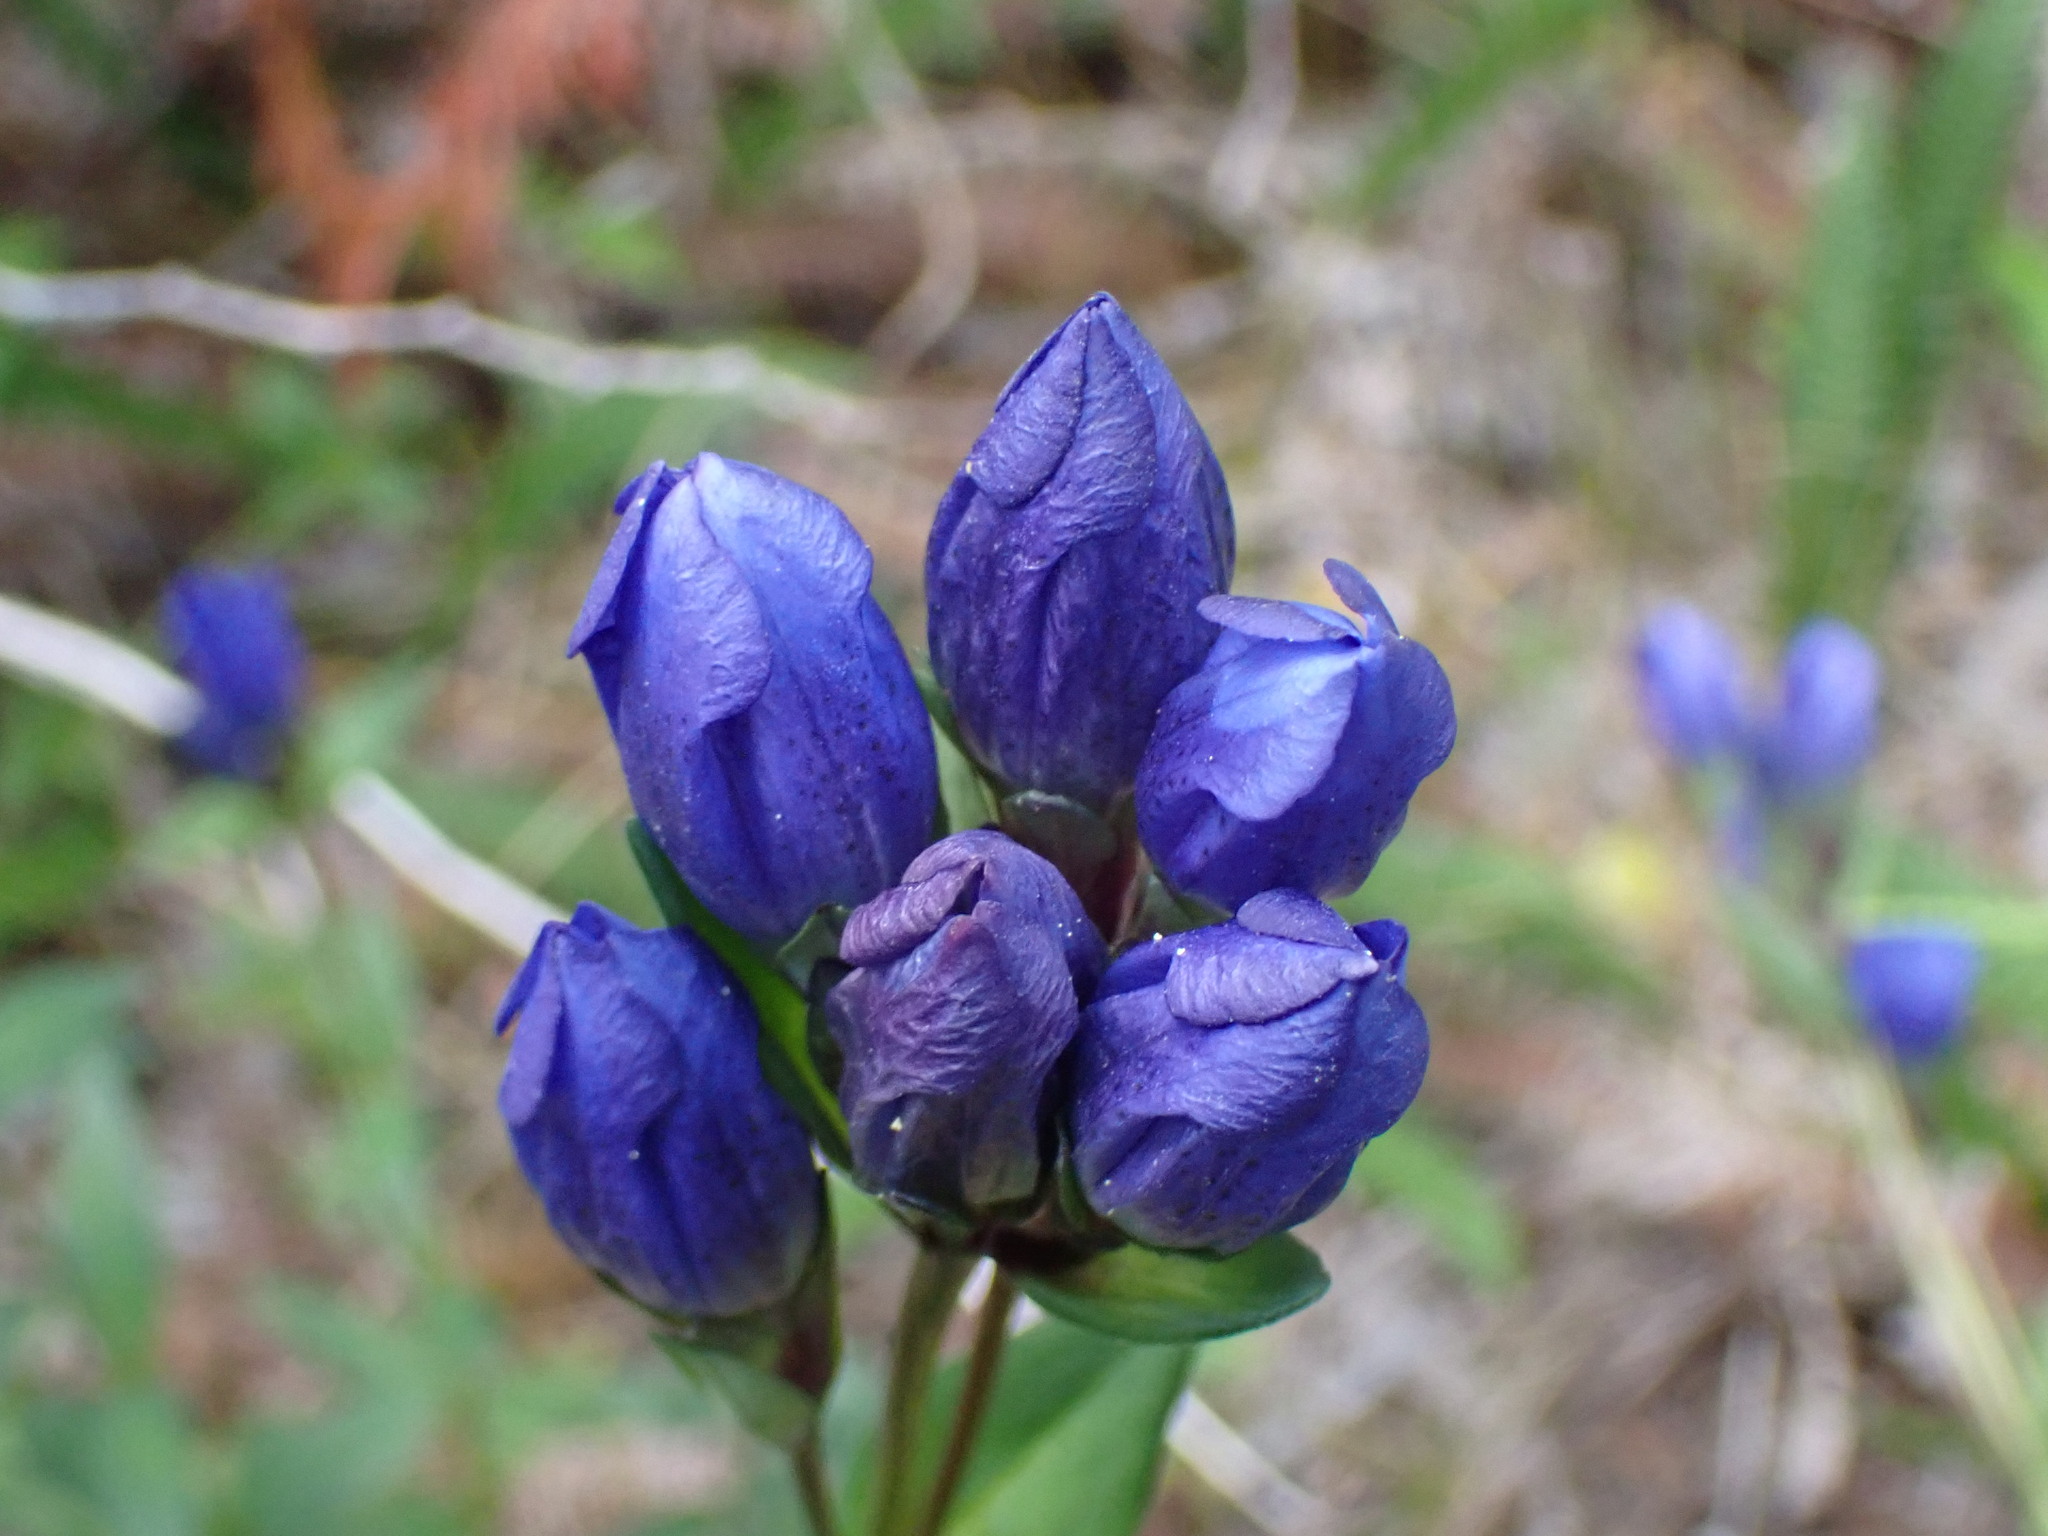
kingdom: Plantae
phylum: Tracheophyta
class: Magnoliopsida
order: Gentianales
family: Gentianaceae
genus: Gentiana
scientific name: Gentiana sceptrum
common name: Pacific gentian
